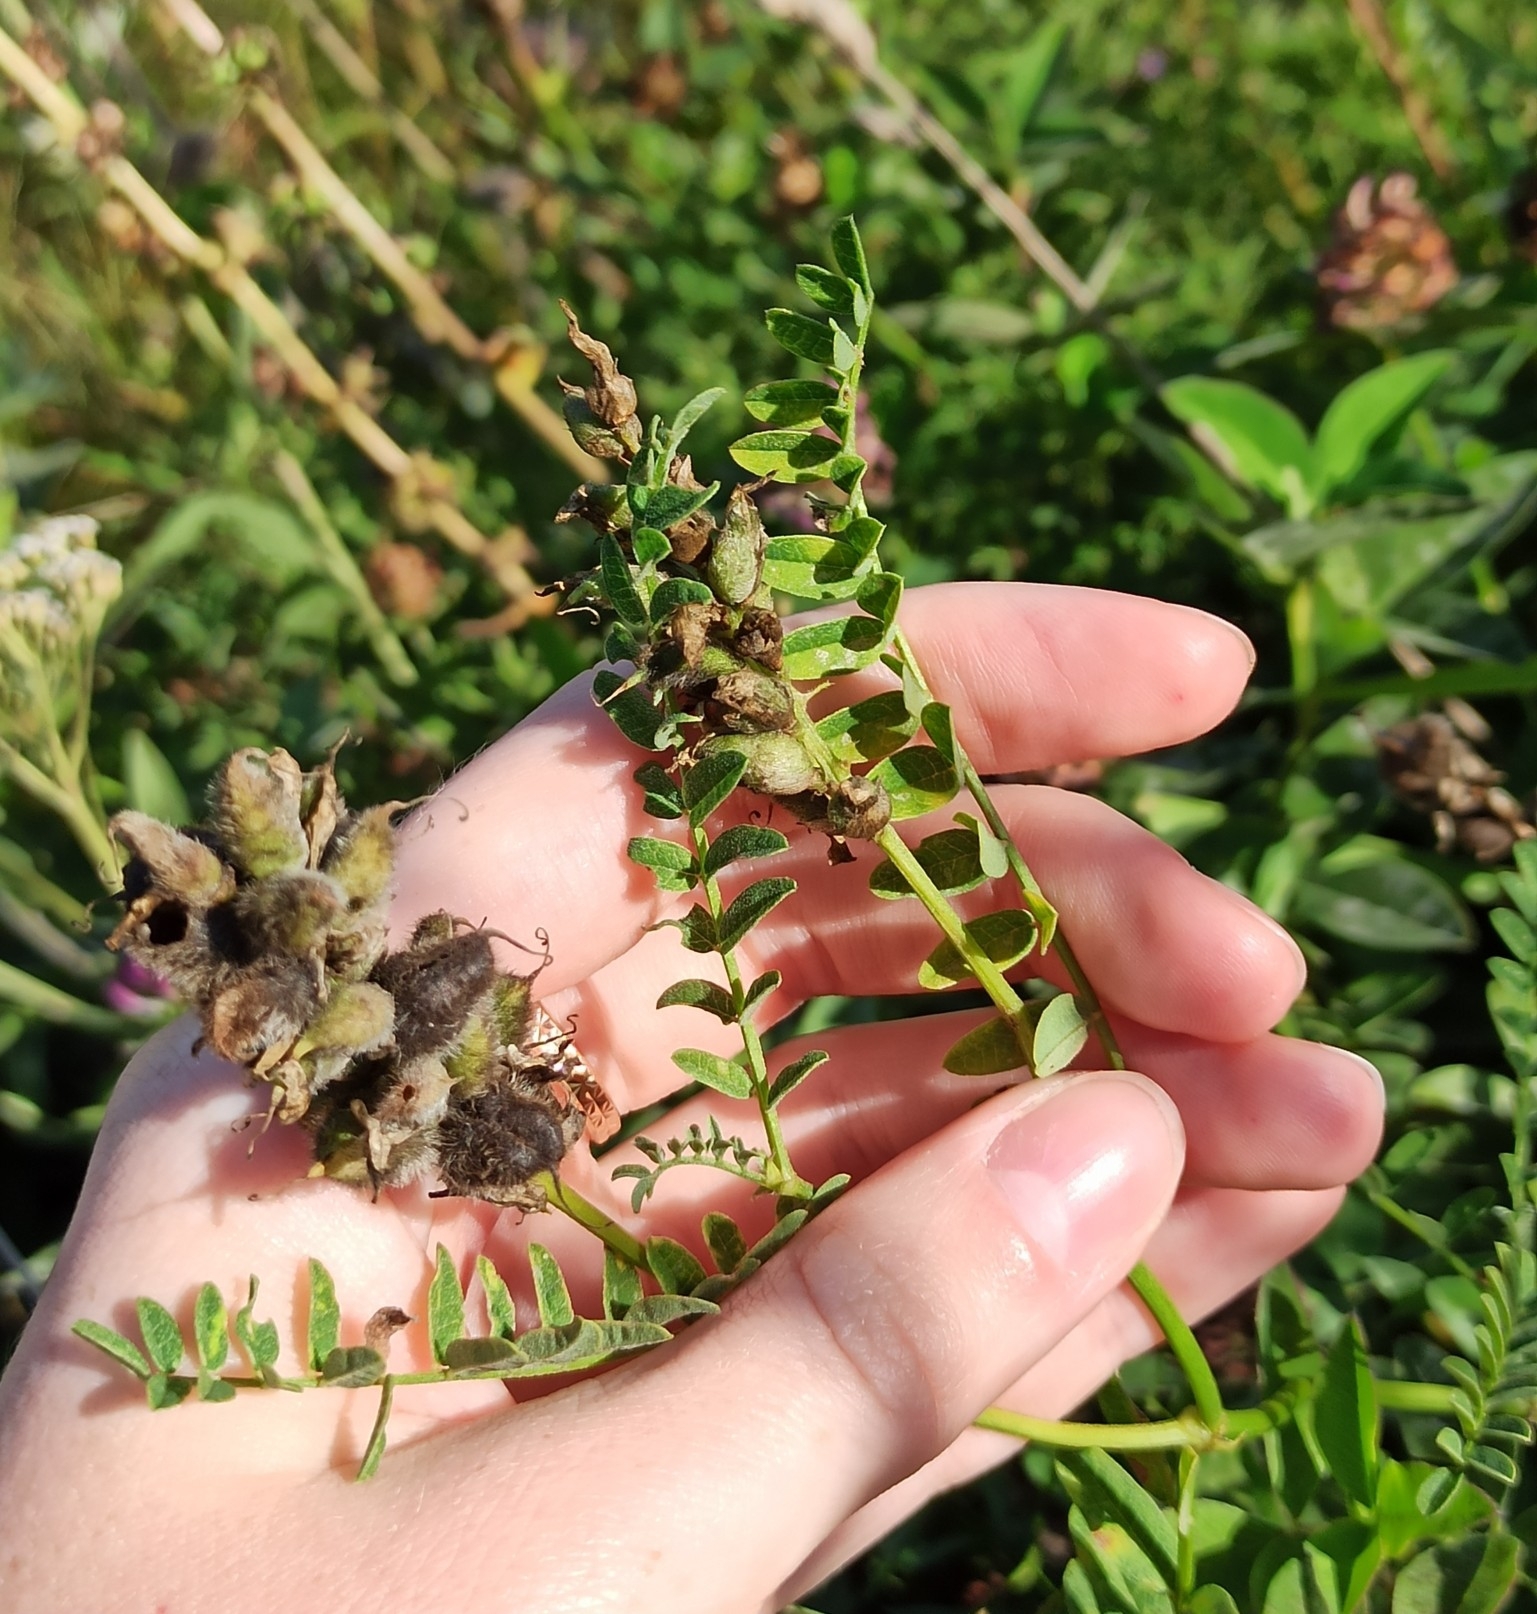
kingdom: Plantae
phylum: Tracheophyta
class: Magnoliopsida
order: Fabales
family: Fabaceae
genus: Astragalus
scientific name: Astragalus cicer
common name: Chick-pea milk-vetch
